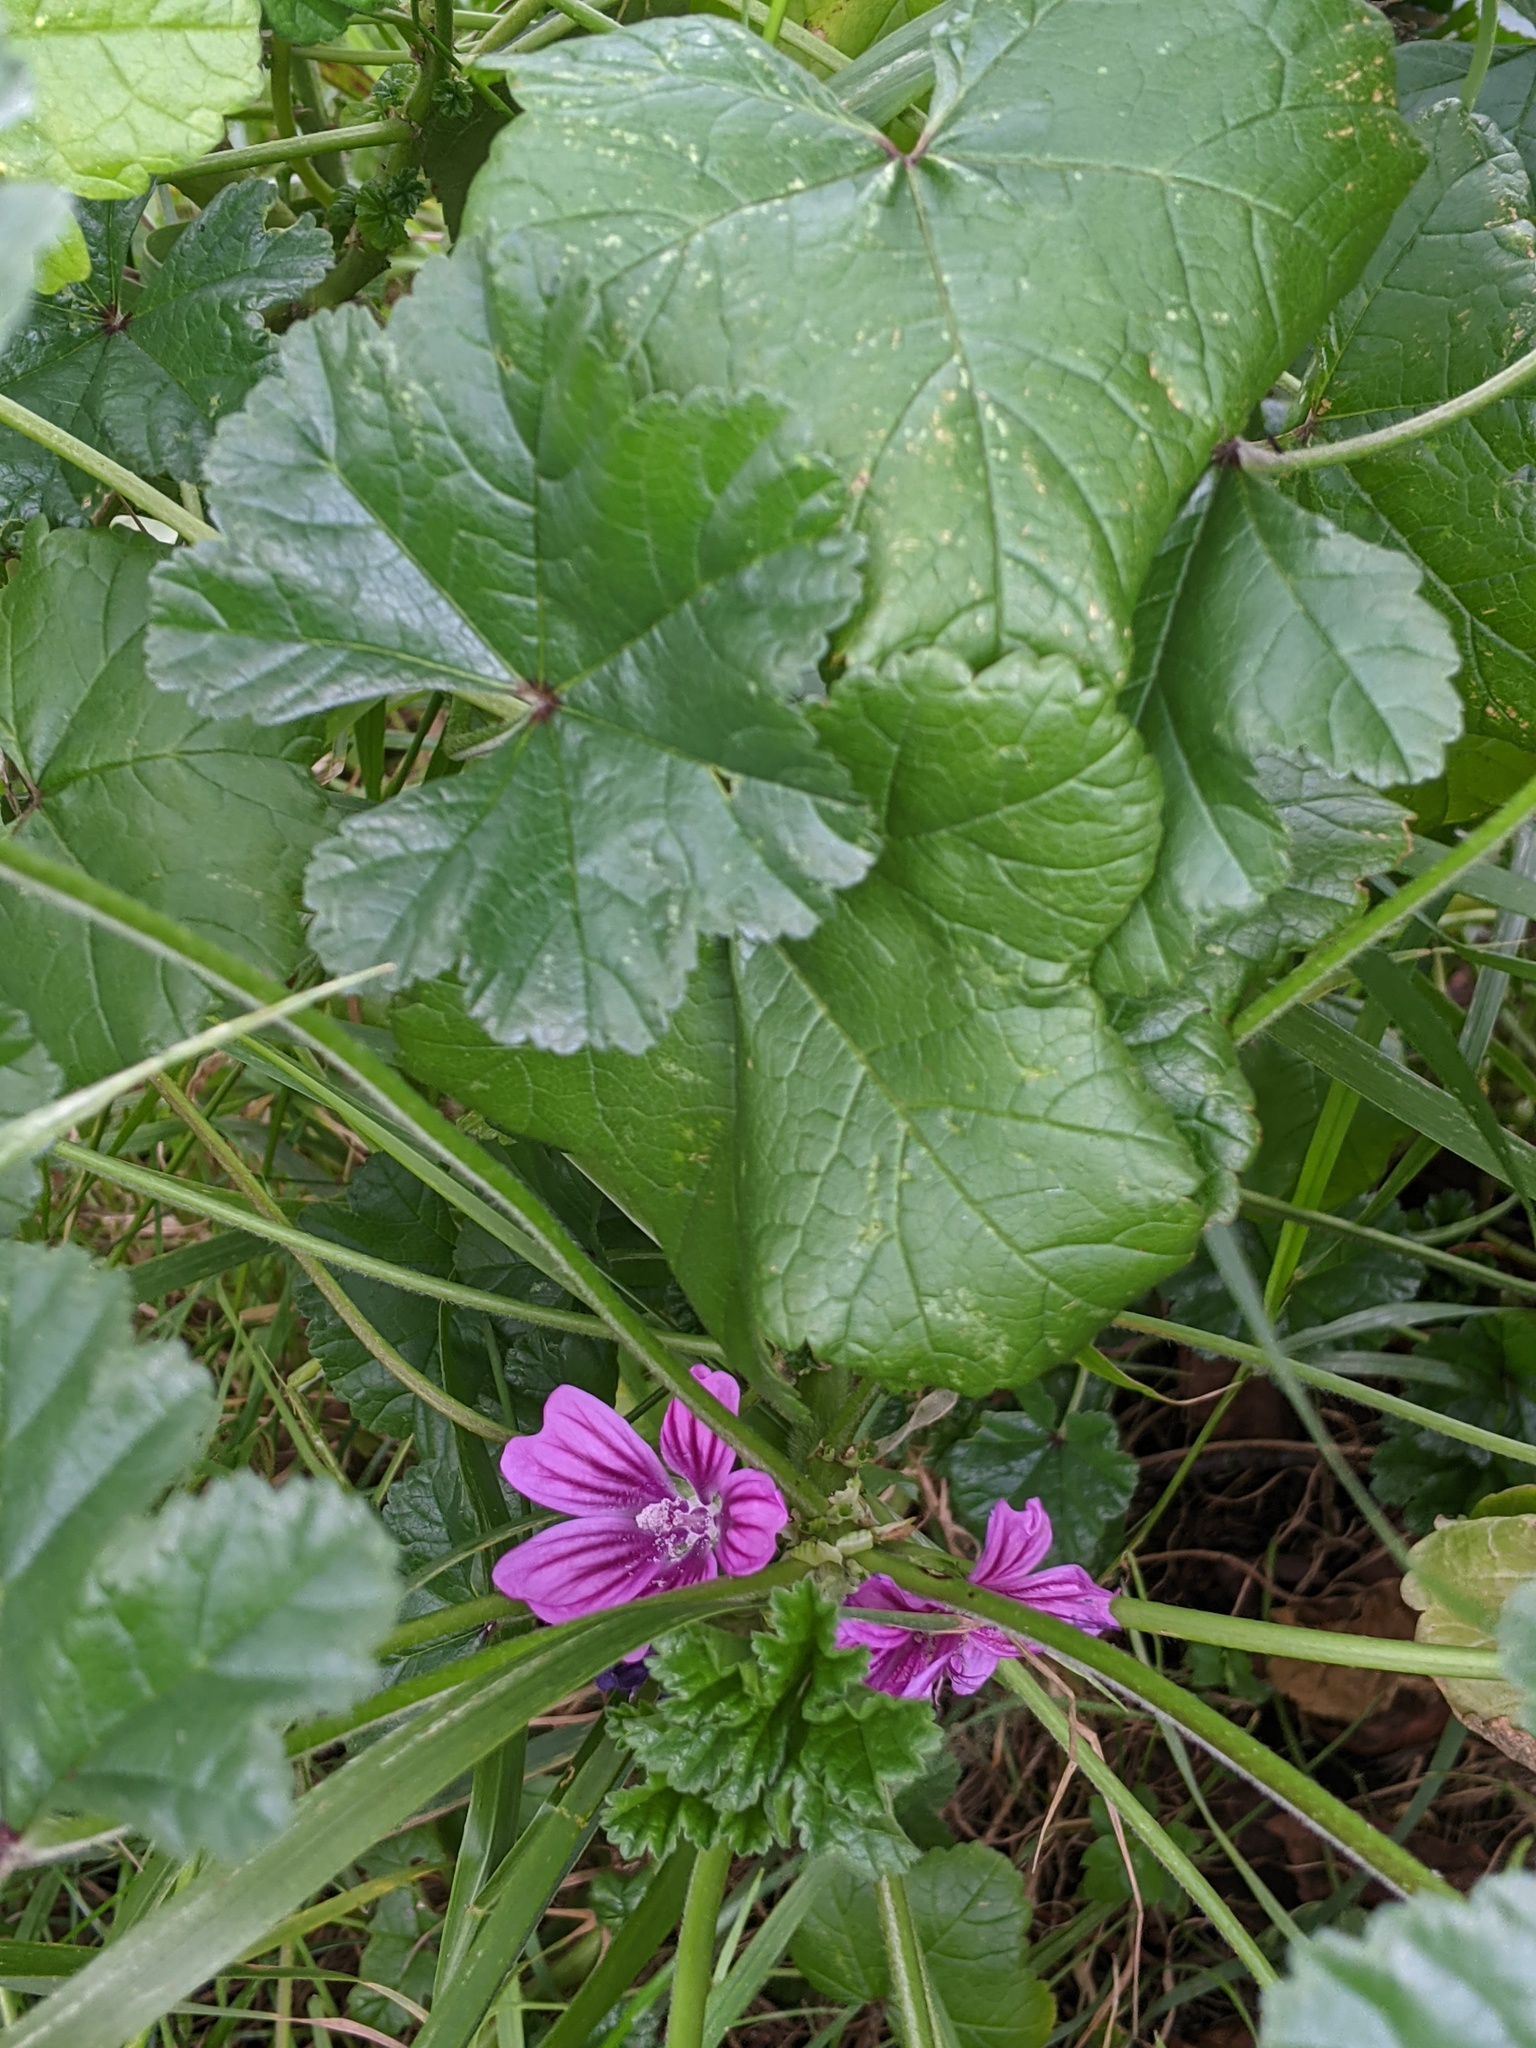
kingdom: Plantae
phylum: Tracheophyta
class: Magnoliopsida
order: Malvales
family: Malvaceae
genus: Malva
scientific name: Malva sylvestris
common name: Common mallow
